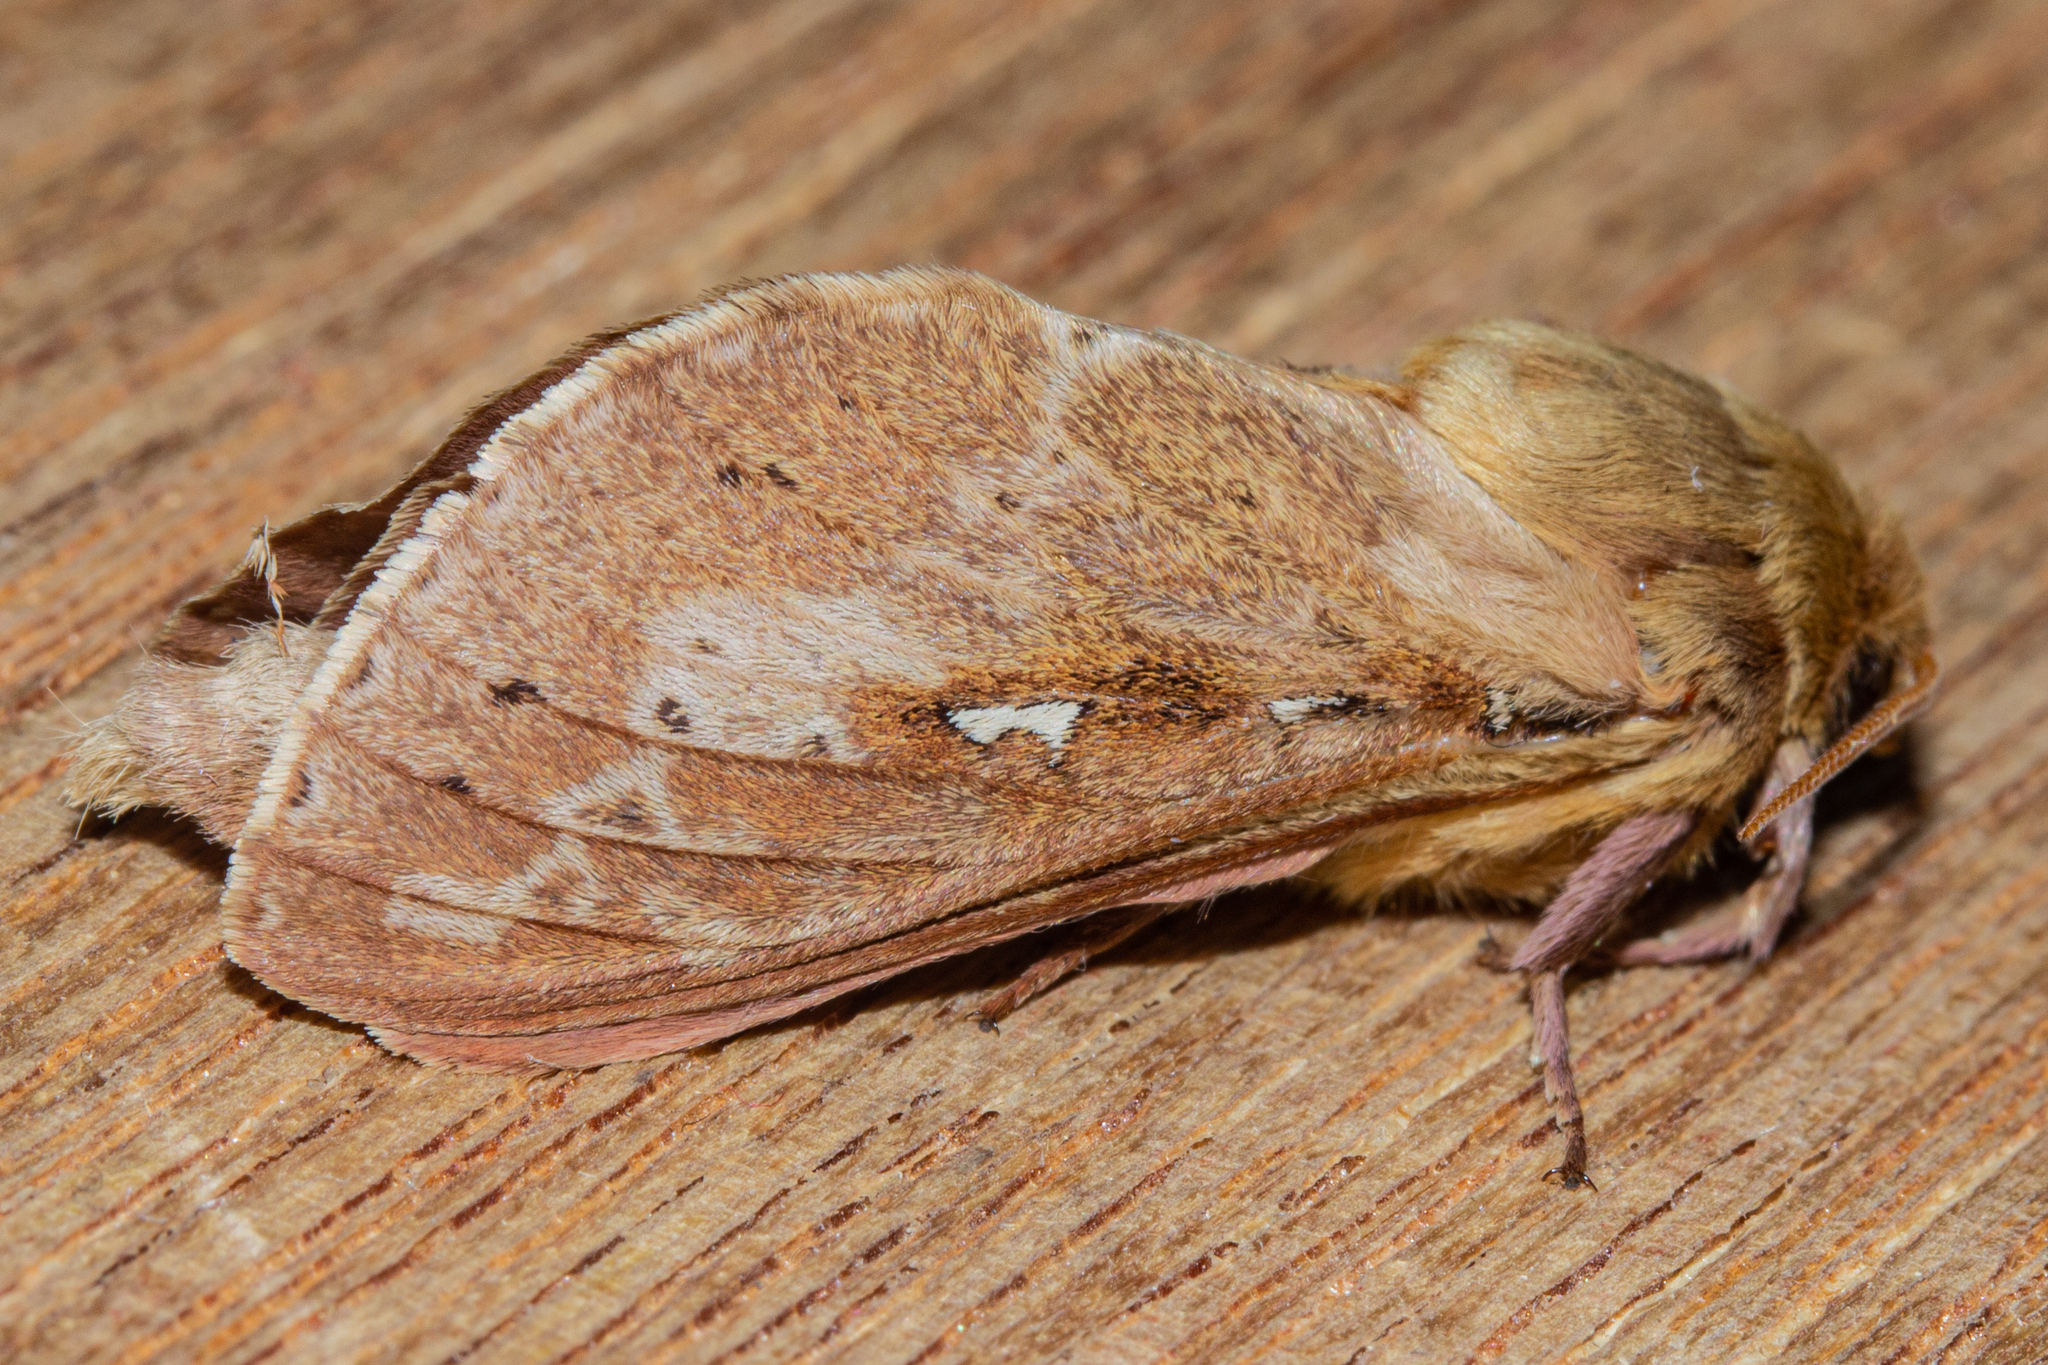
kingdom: Animalia
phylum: Arthropoda
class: Insecta
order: Lepidoptera
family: Hepialidae
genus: Wiseana
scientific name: Wiseana copularis
